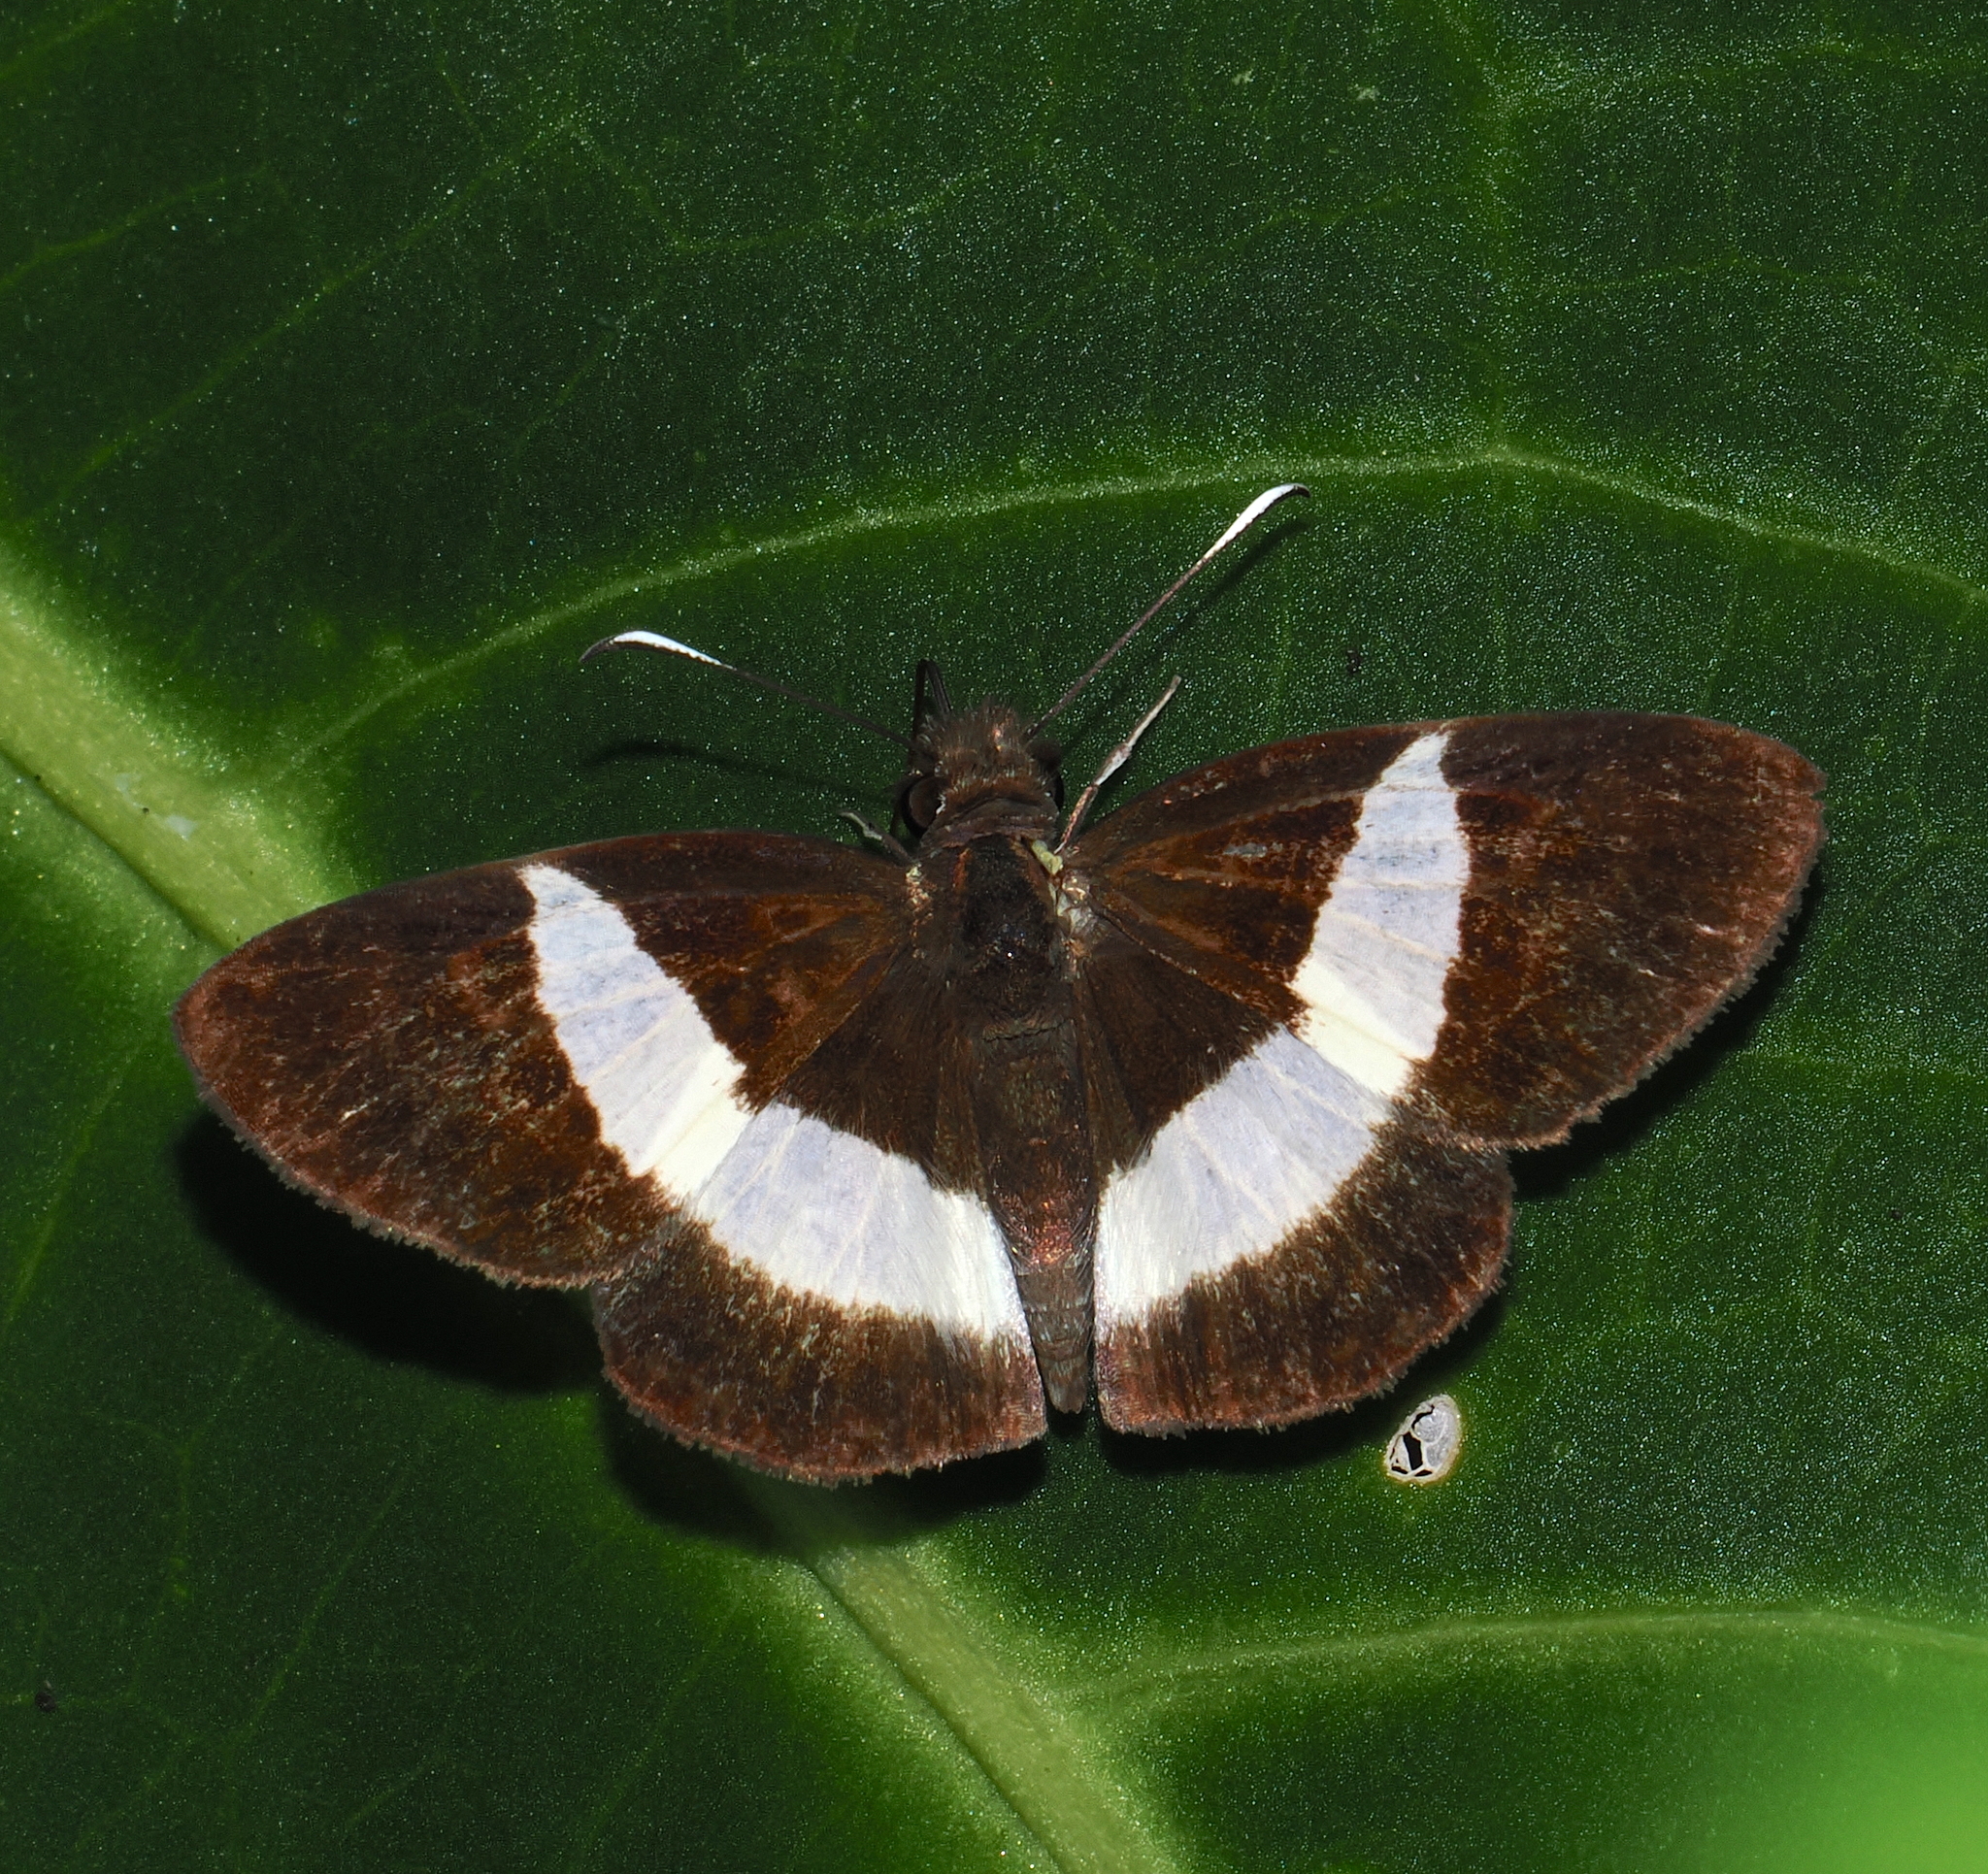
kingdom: Animalia
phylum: Arthropoda
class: Insecta
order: Lepidoptera
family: Hesperiidae
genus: Potamanaxas
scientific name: Potamanaxas thoria
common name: Thoria skipper
